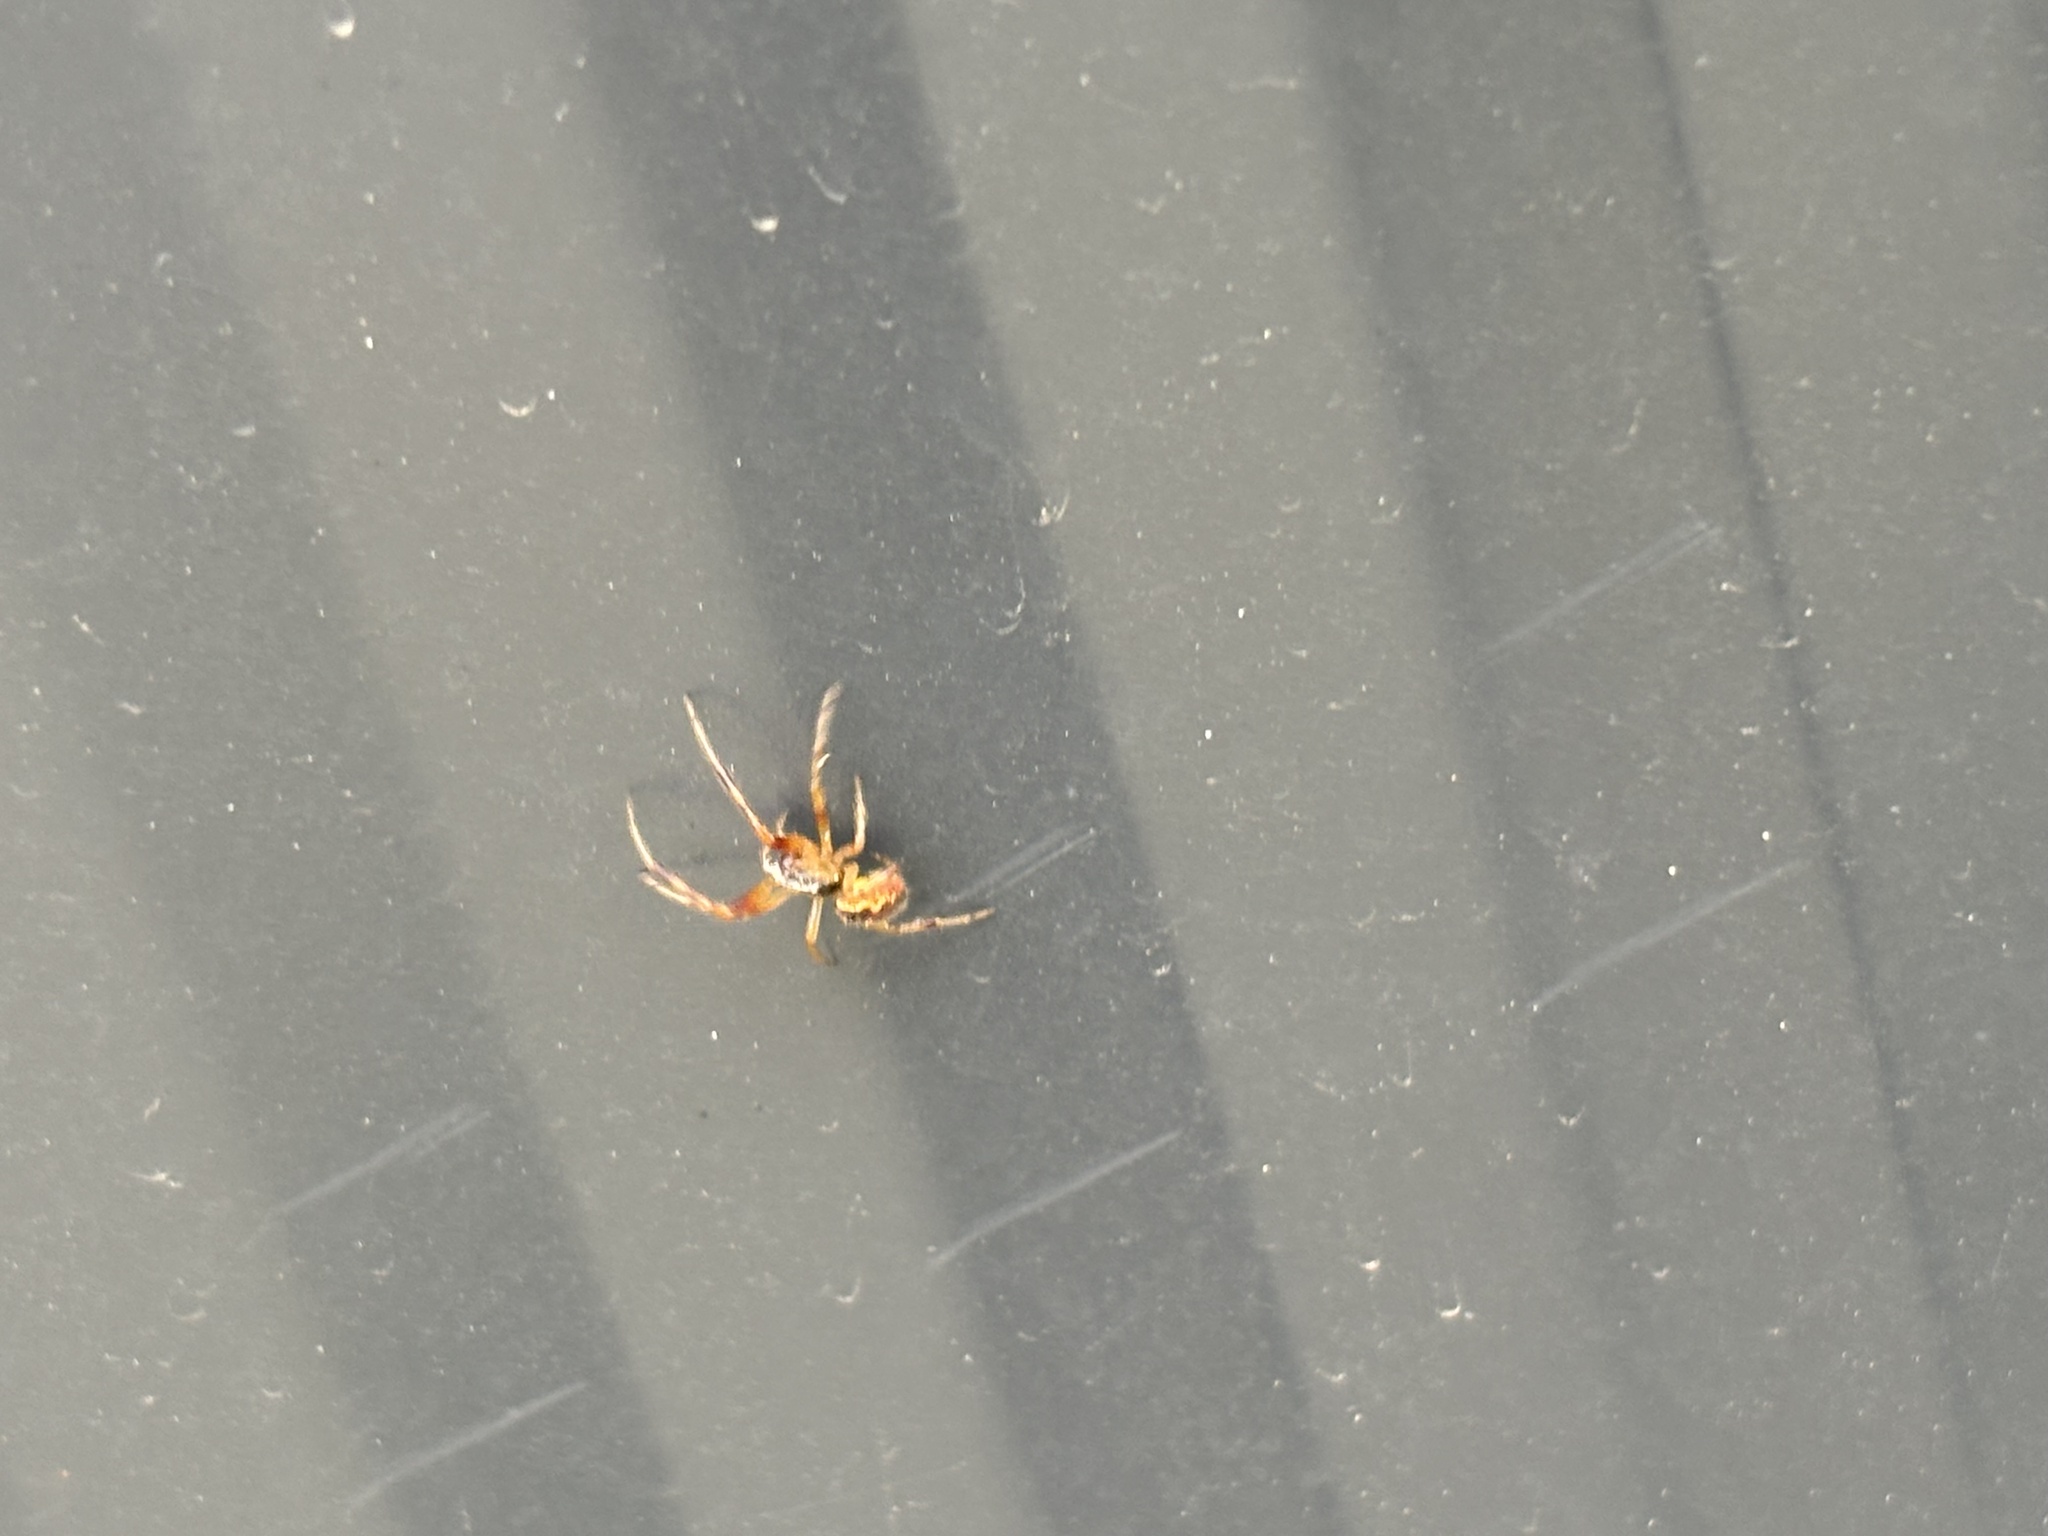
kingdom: Animalia
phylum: Arthropoda
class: Arachnida
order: Araneae
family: Theridiidae
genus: Anelosimus
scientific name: Anelosimus vittatus
